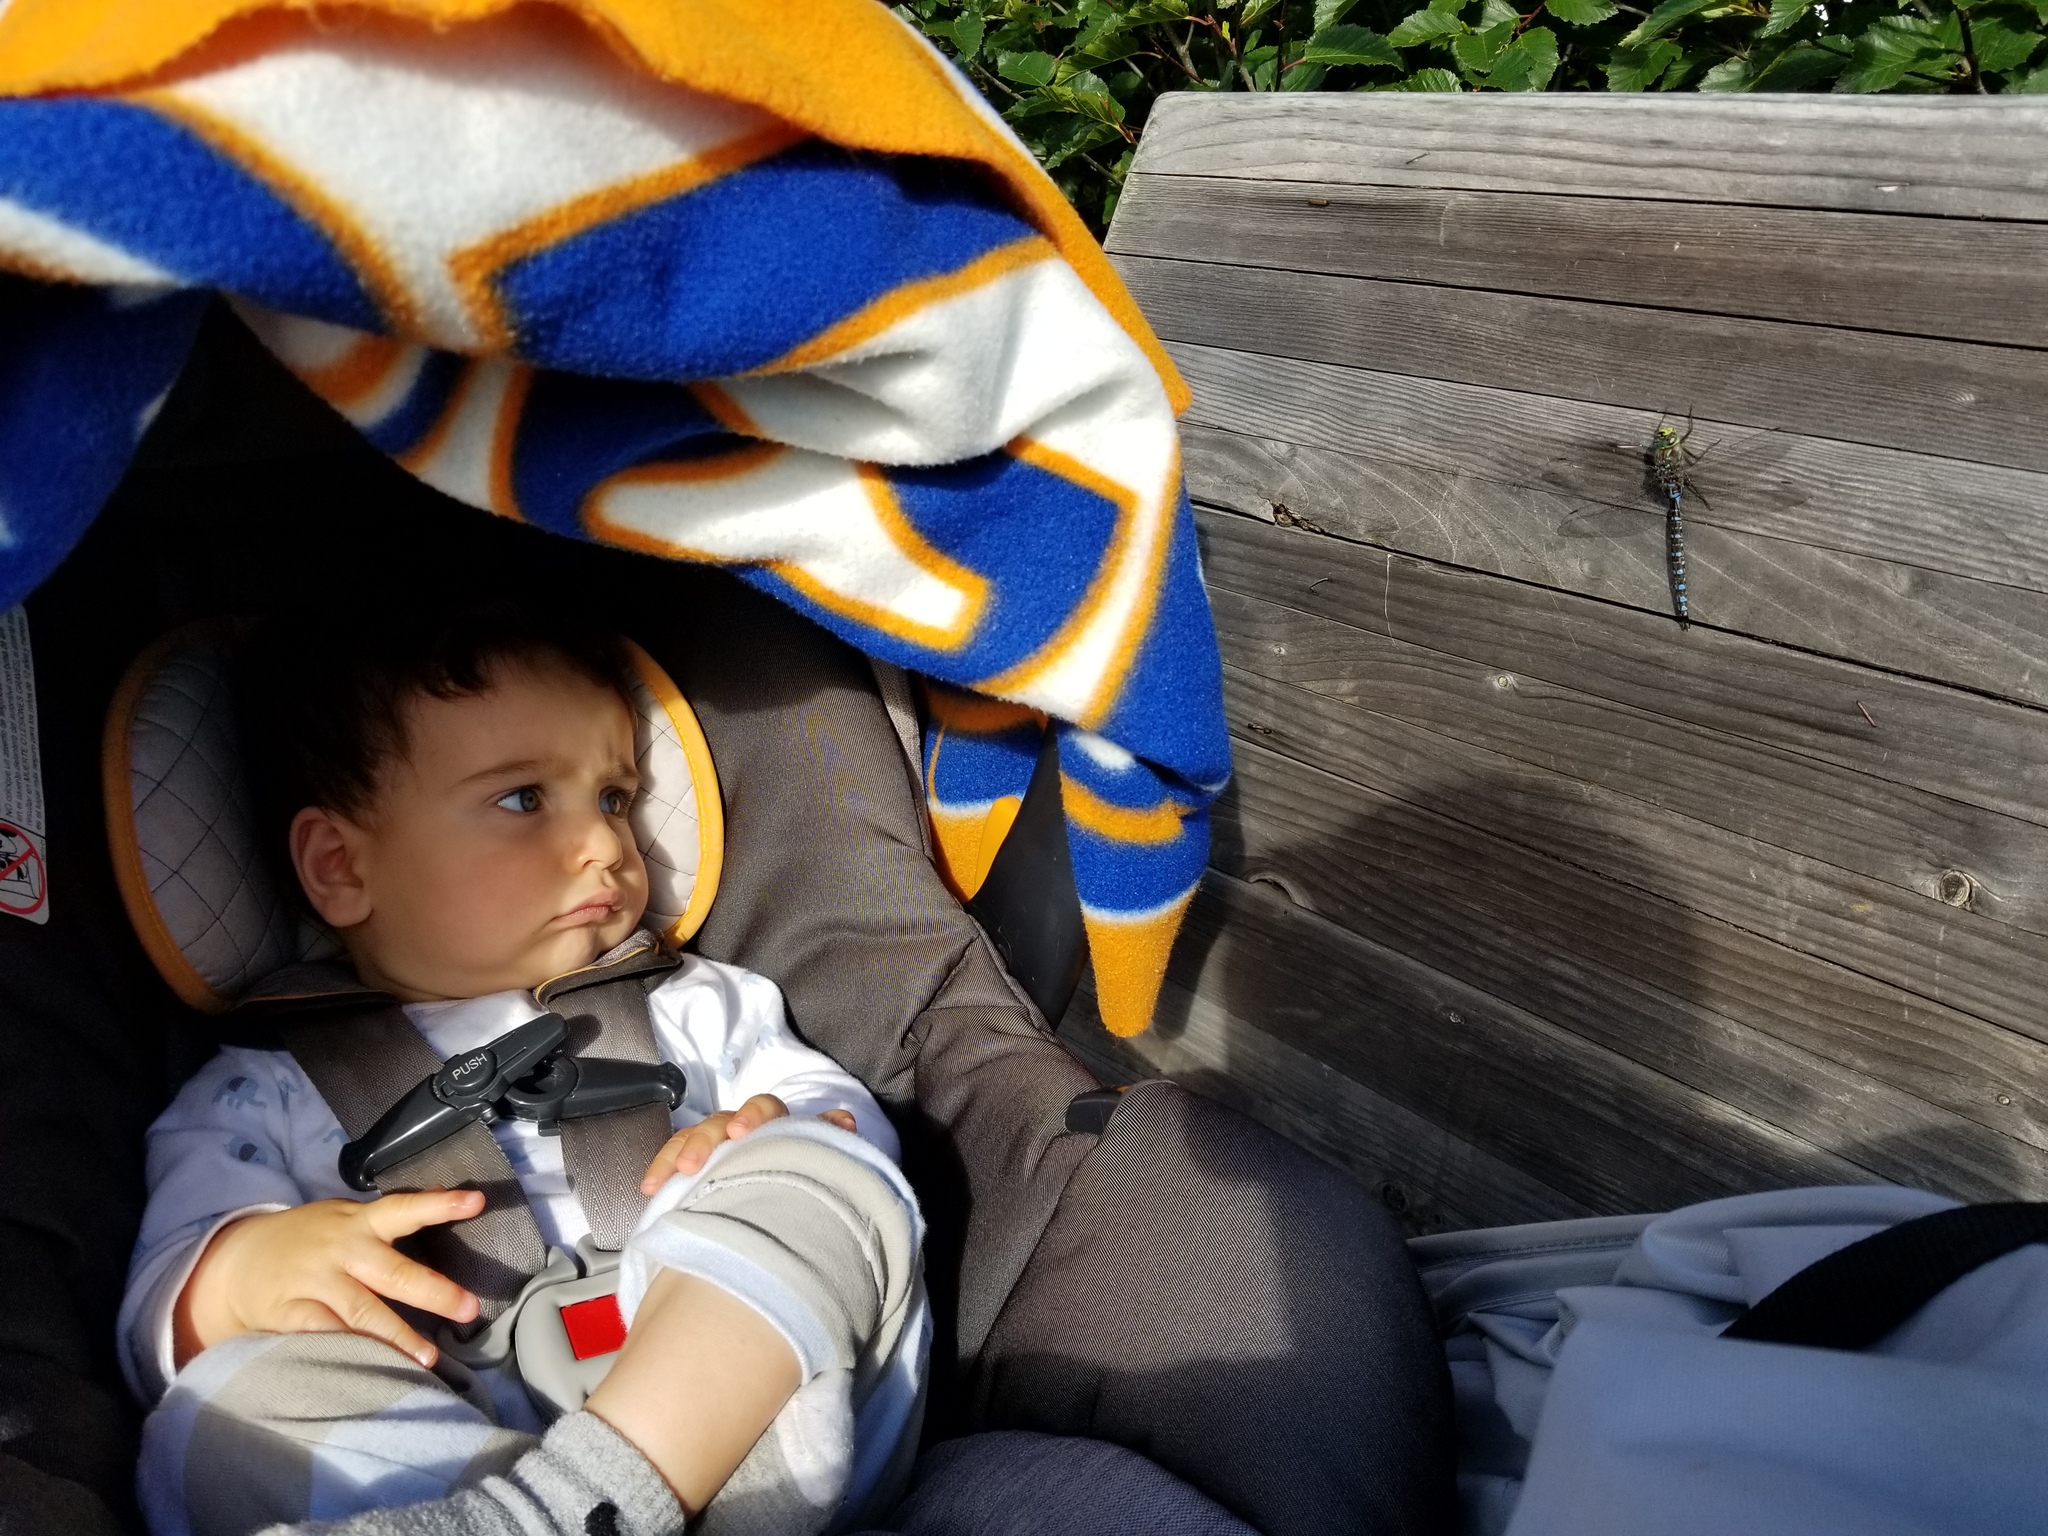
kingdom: Animalia
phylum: Arthropoda
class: Insecta
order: Odonata
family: Aeshnidae
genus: Aeshna
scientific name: Aeshna eremita
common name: Lake darner
